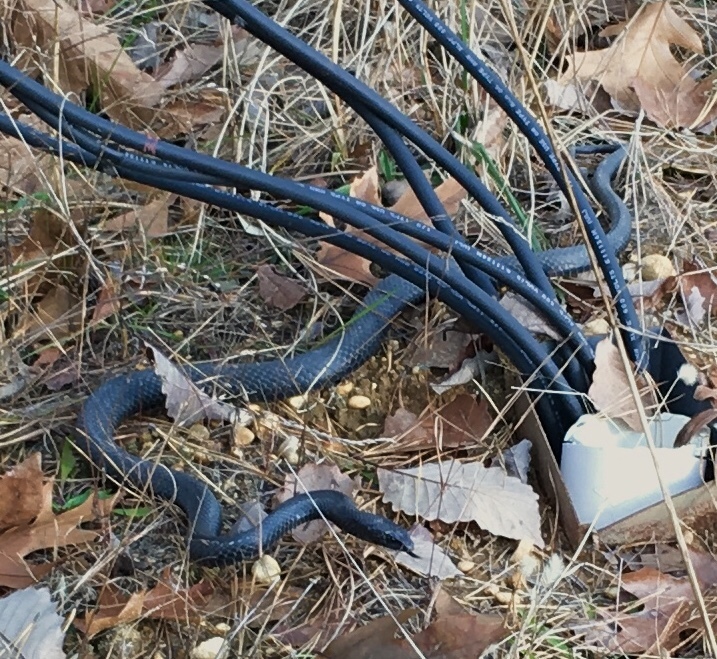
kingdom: Animalia
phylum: Chordata
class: Squamata
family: Colubridae
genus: Coluber
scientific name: Coluber constrictor
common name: Eastern racer
